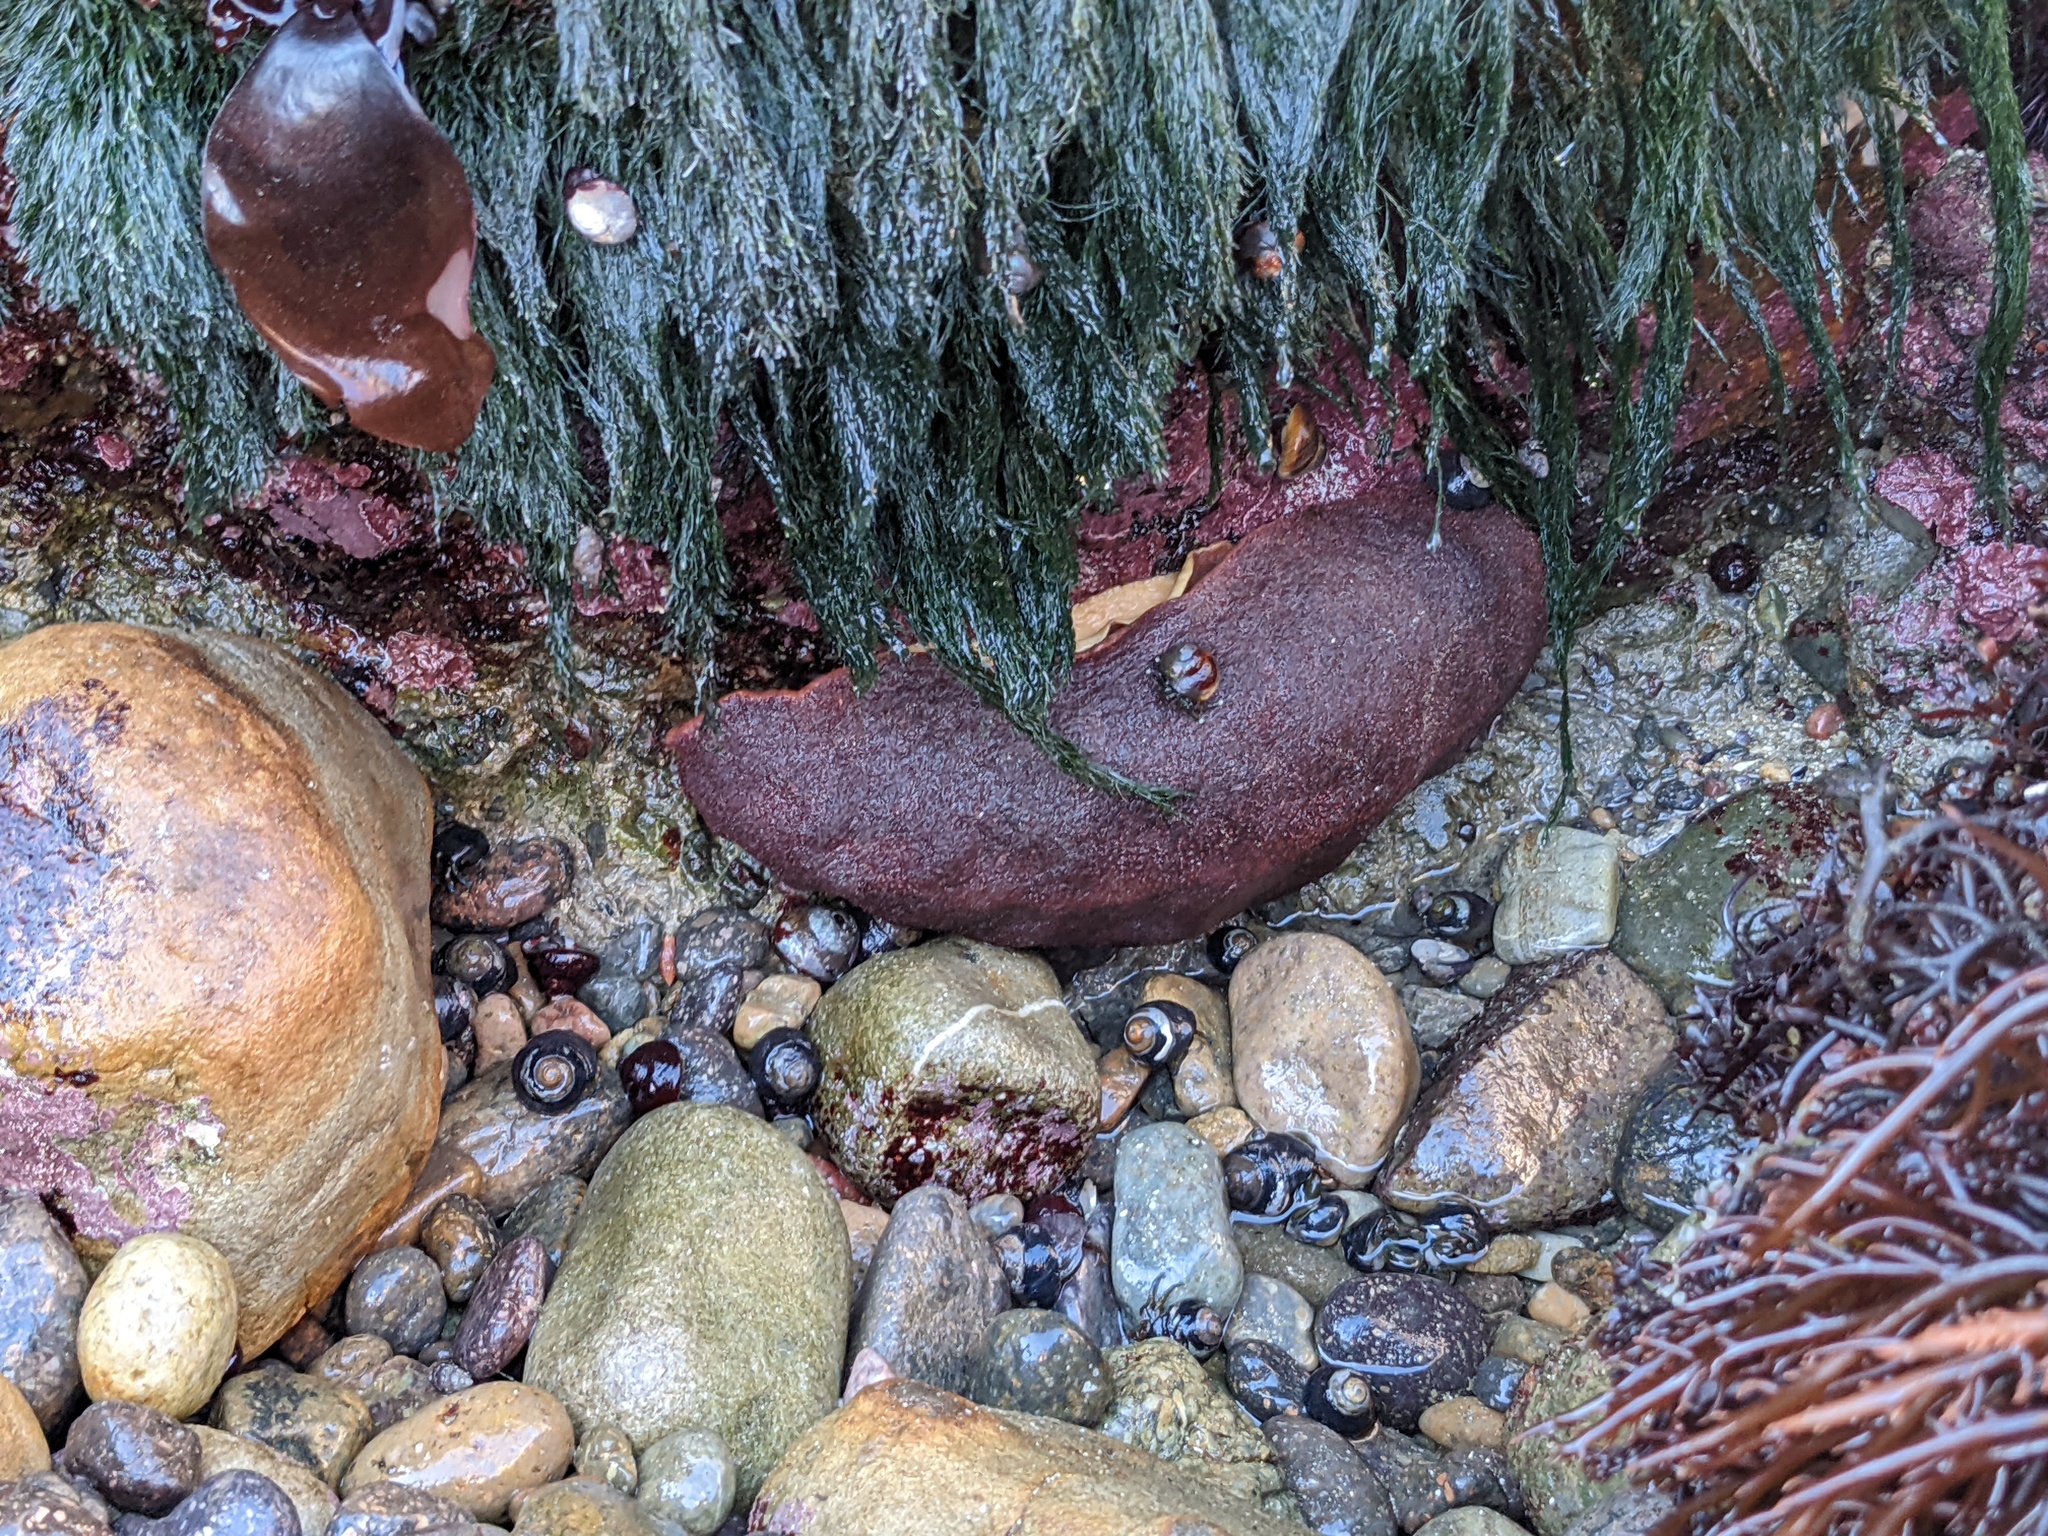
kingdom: Animalia
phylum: Mollusca
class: Polyplacophora
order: Chitonida
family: Acanthochitonidae
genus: Cryptochiton
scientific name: Cryptochiton stelleri
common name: Giant pacific chiton
